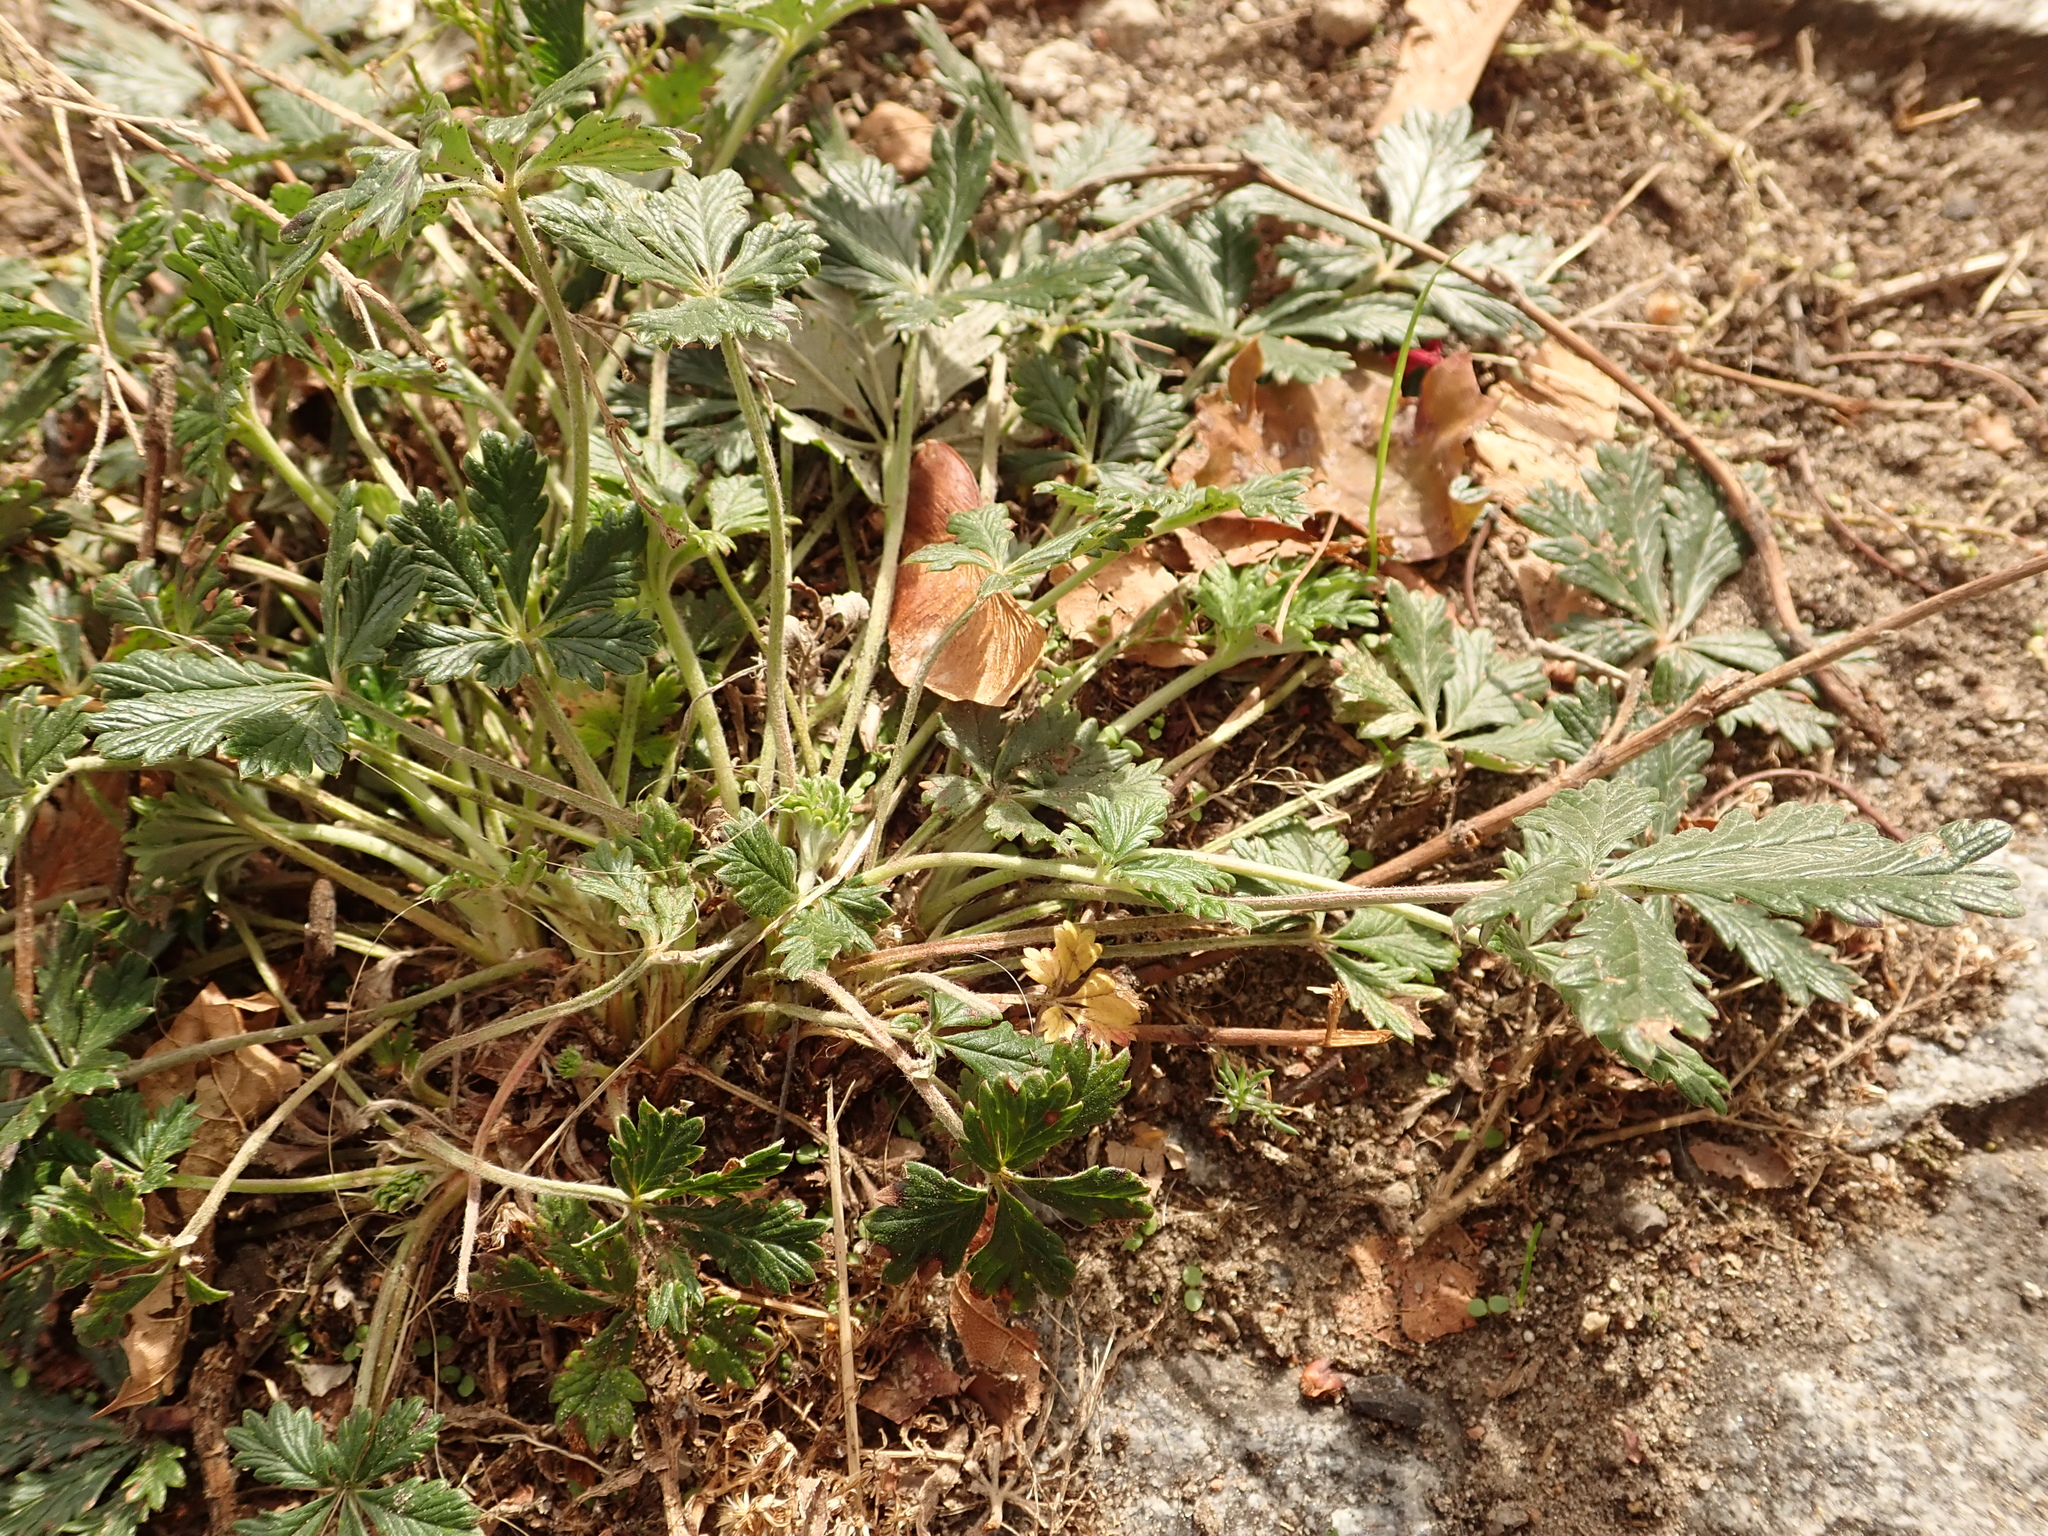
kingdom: Plantae
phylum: Tracheophyta
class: Magnoliopsida
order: Rosales
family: Rosaceae
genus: Potentilla
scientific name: Potentilla argentea
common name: Hoary cinquefoil
